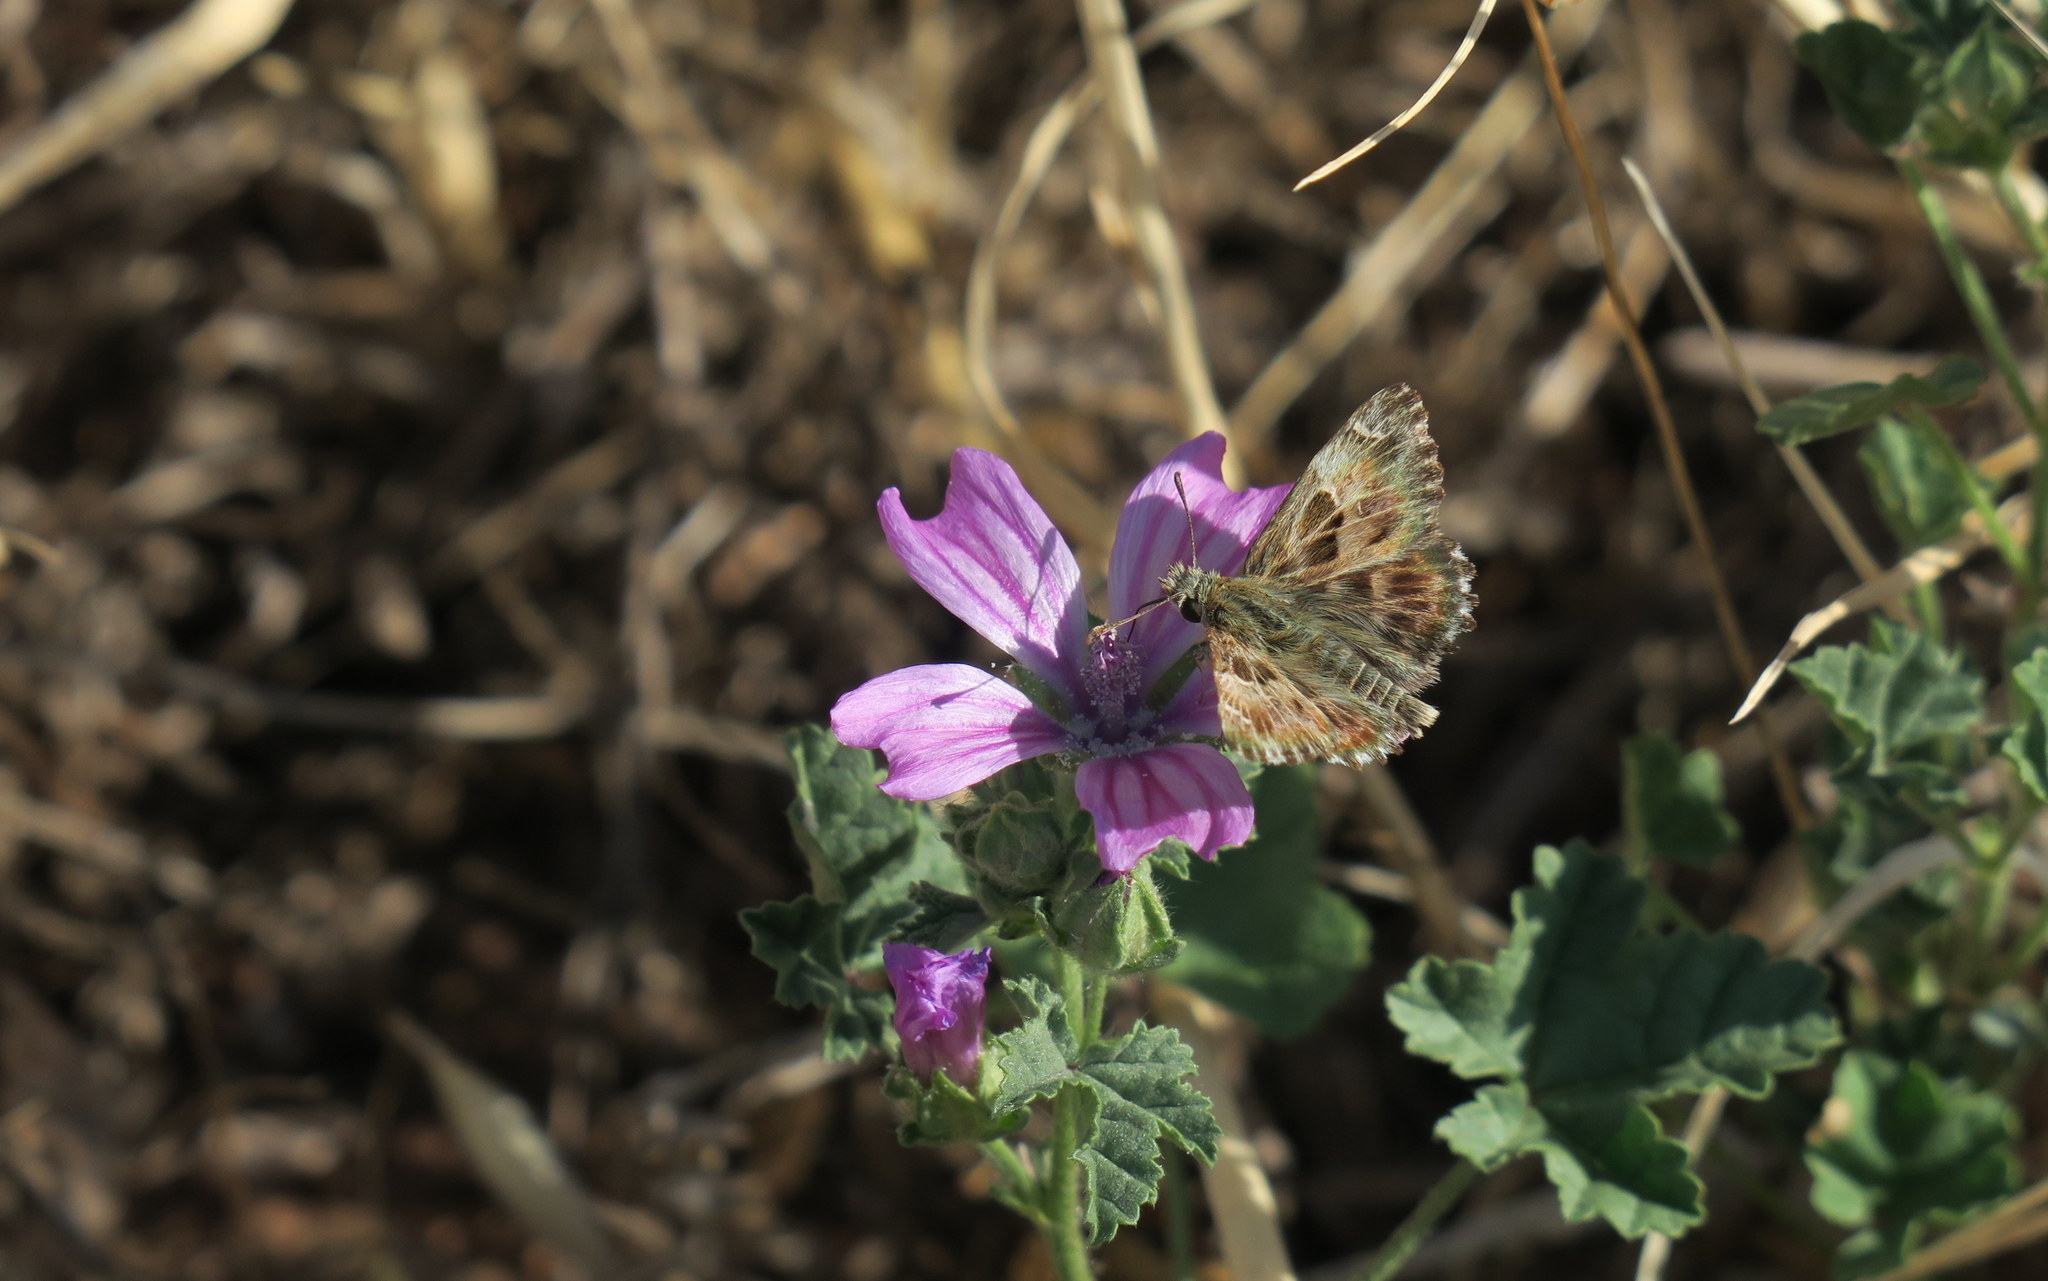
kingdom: Animalia
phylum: Arthropoda
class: Insecta
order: Lepidoptera
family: Hesperiidae
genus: Carcharodus
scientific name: Carcharodus alceae
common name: Mallow skipper
